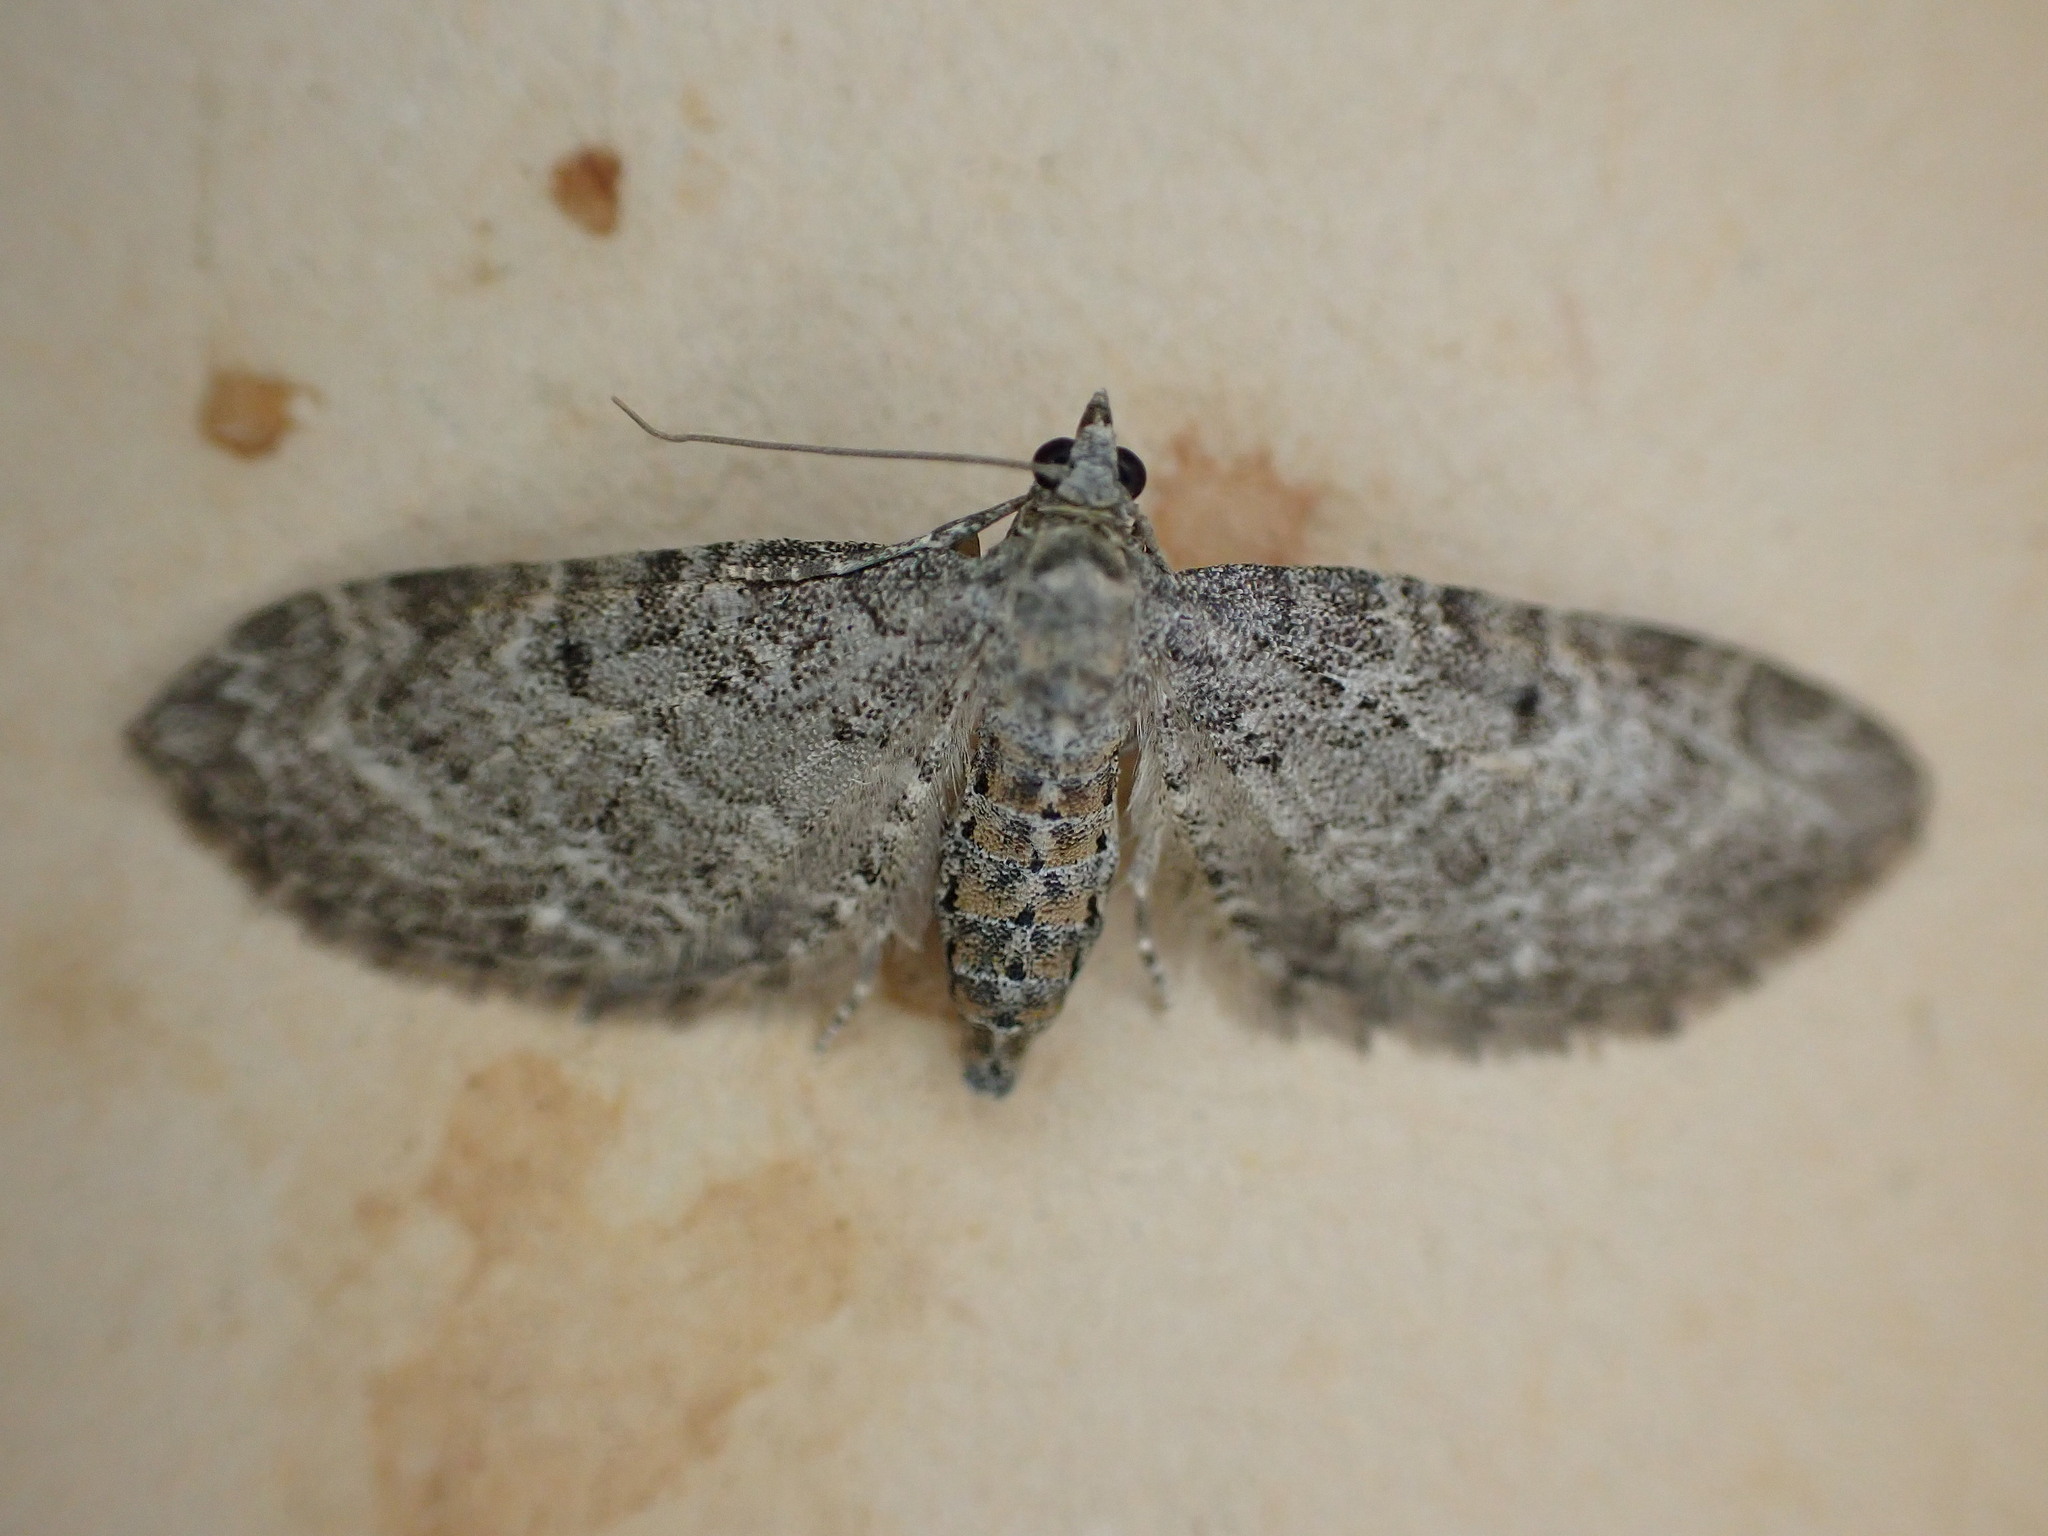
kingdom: Animalia
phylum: Arthropoda
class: Insecta
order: Lepidoptera
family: Geometridae
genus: Eupithecia
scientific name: Eupithecia subfuscata
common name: Grey pug
